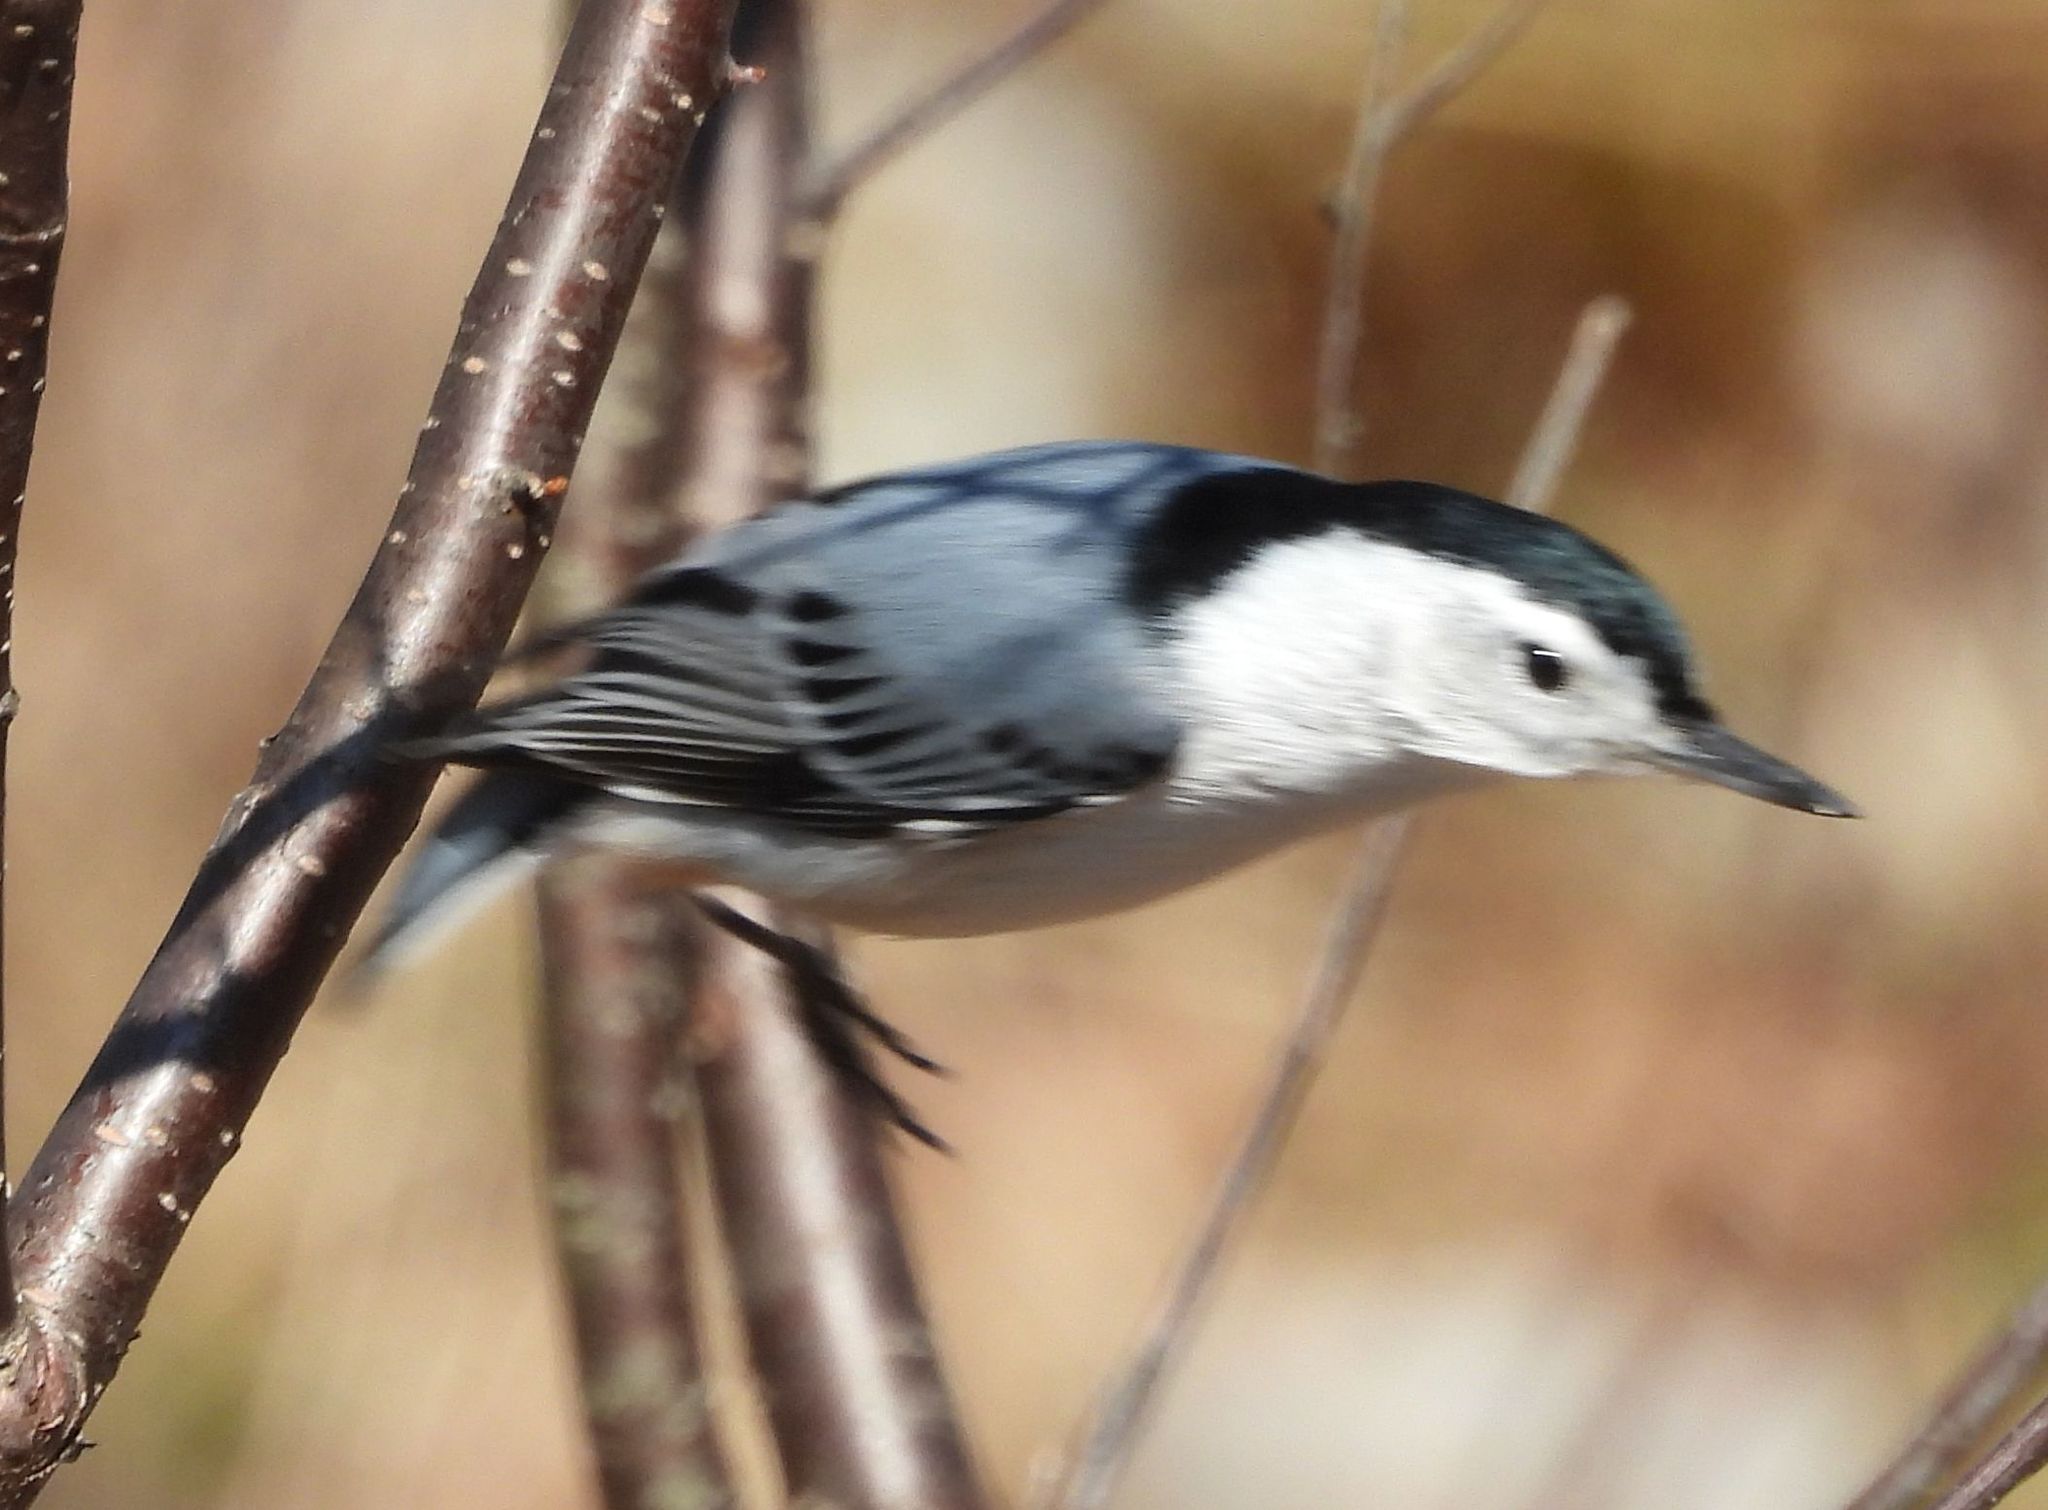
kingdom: Animalia
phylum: Chordata
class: Aves
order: Passeriformes
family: Sittidae
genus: Sitta
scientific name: Sitta carolinensis
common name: White-breasted nuthatch
